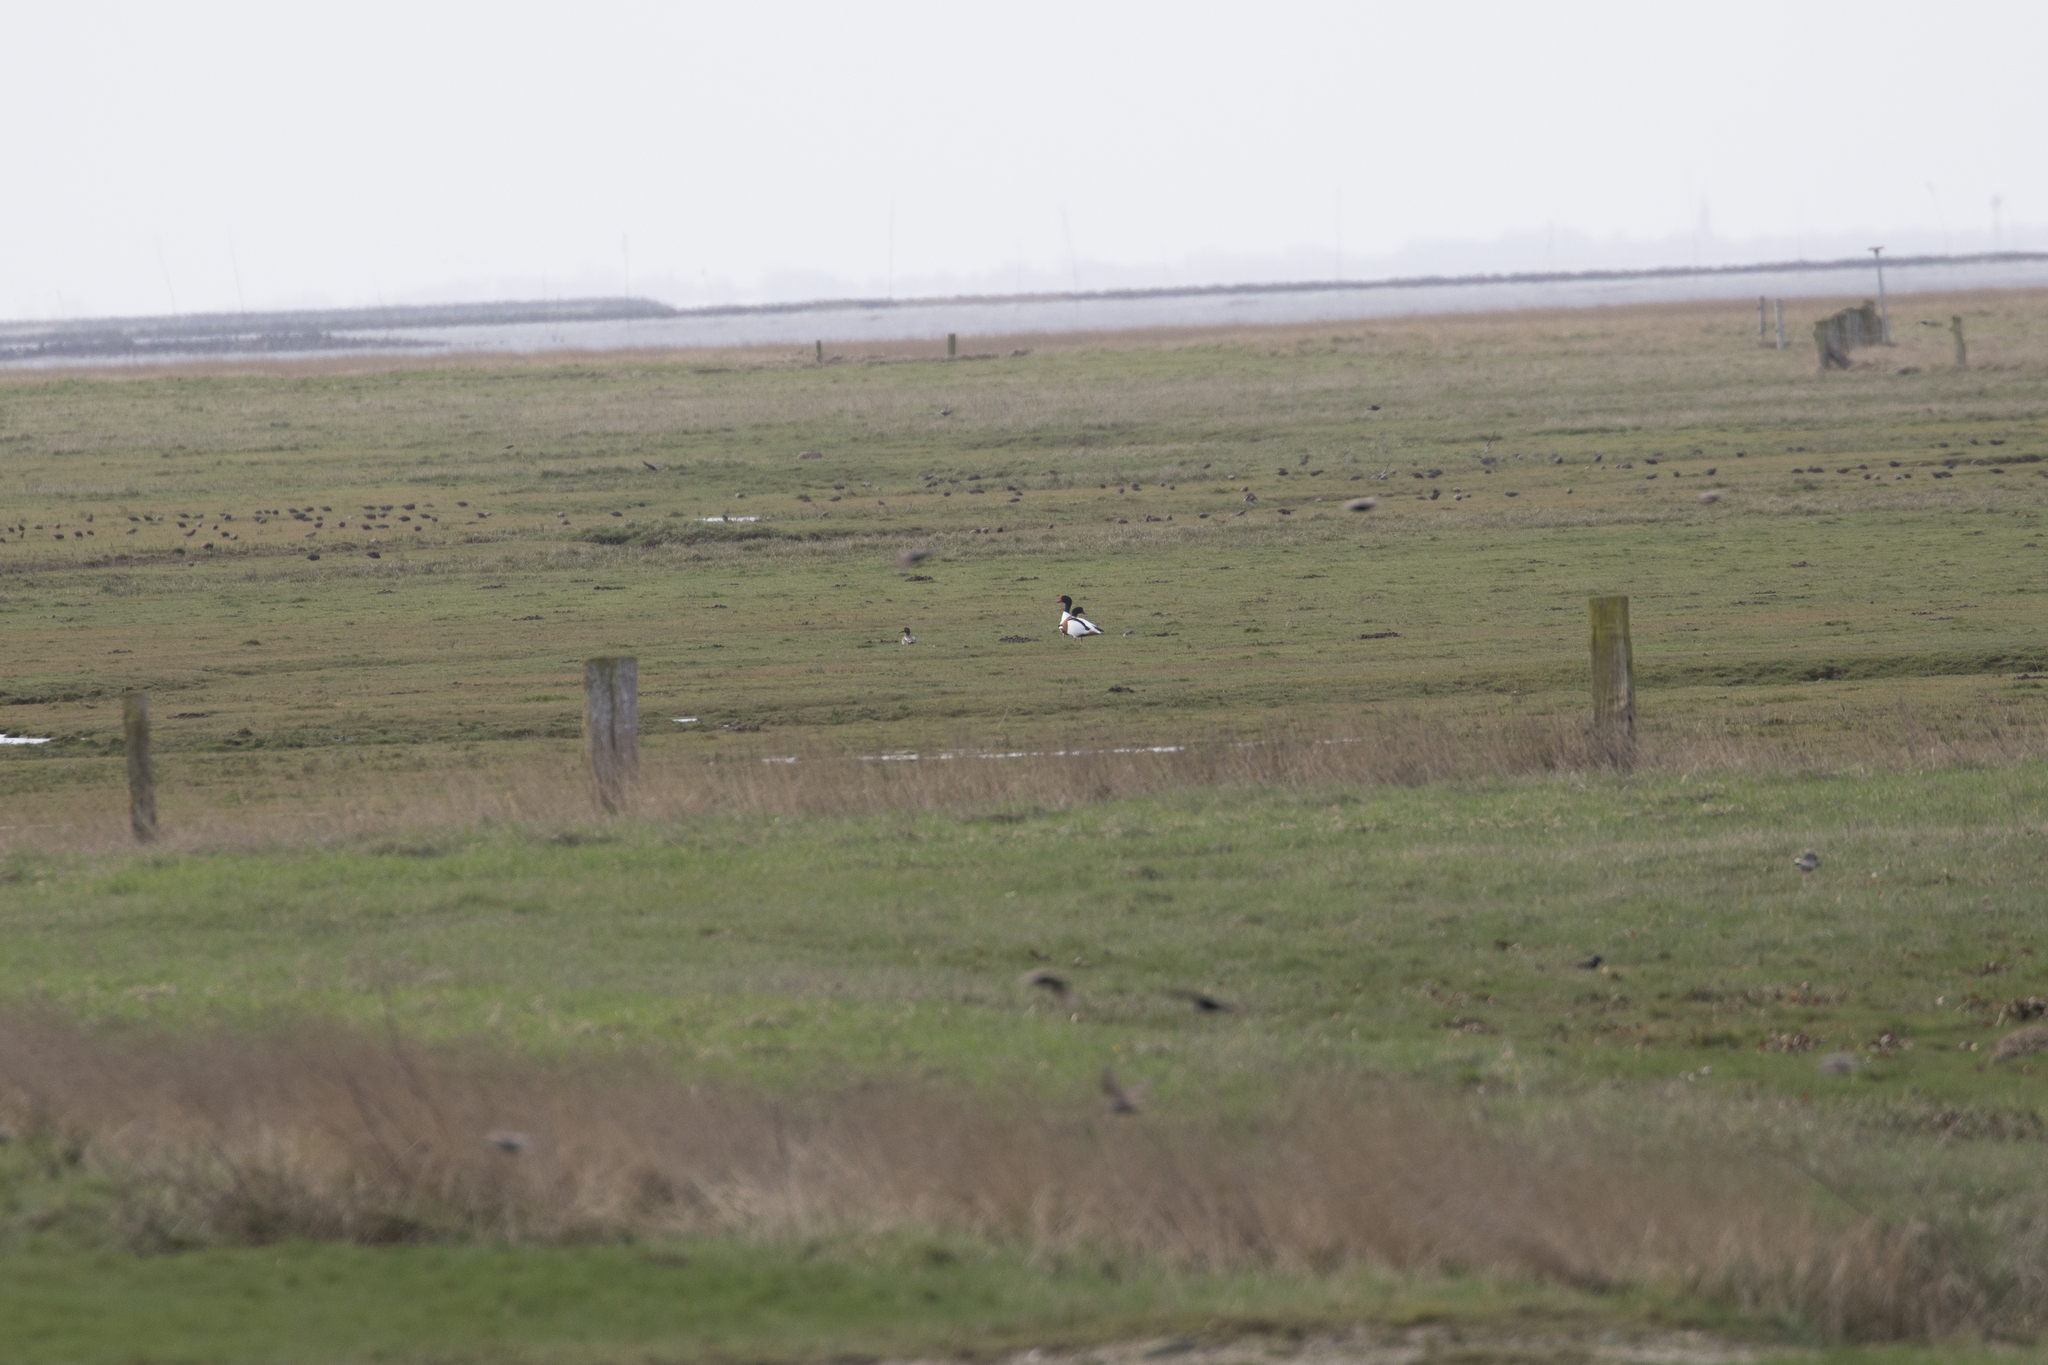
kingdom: Animalia
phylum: Chordata
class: Aves
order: Anseriformes
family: Anatidae
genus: Anas
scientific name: Anas crecca
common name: Eurasian teal
